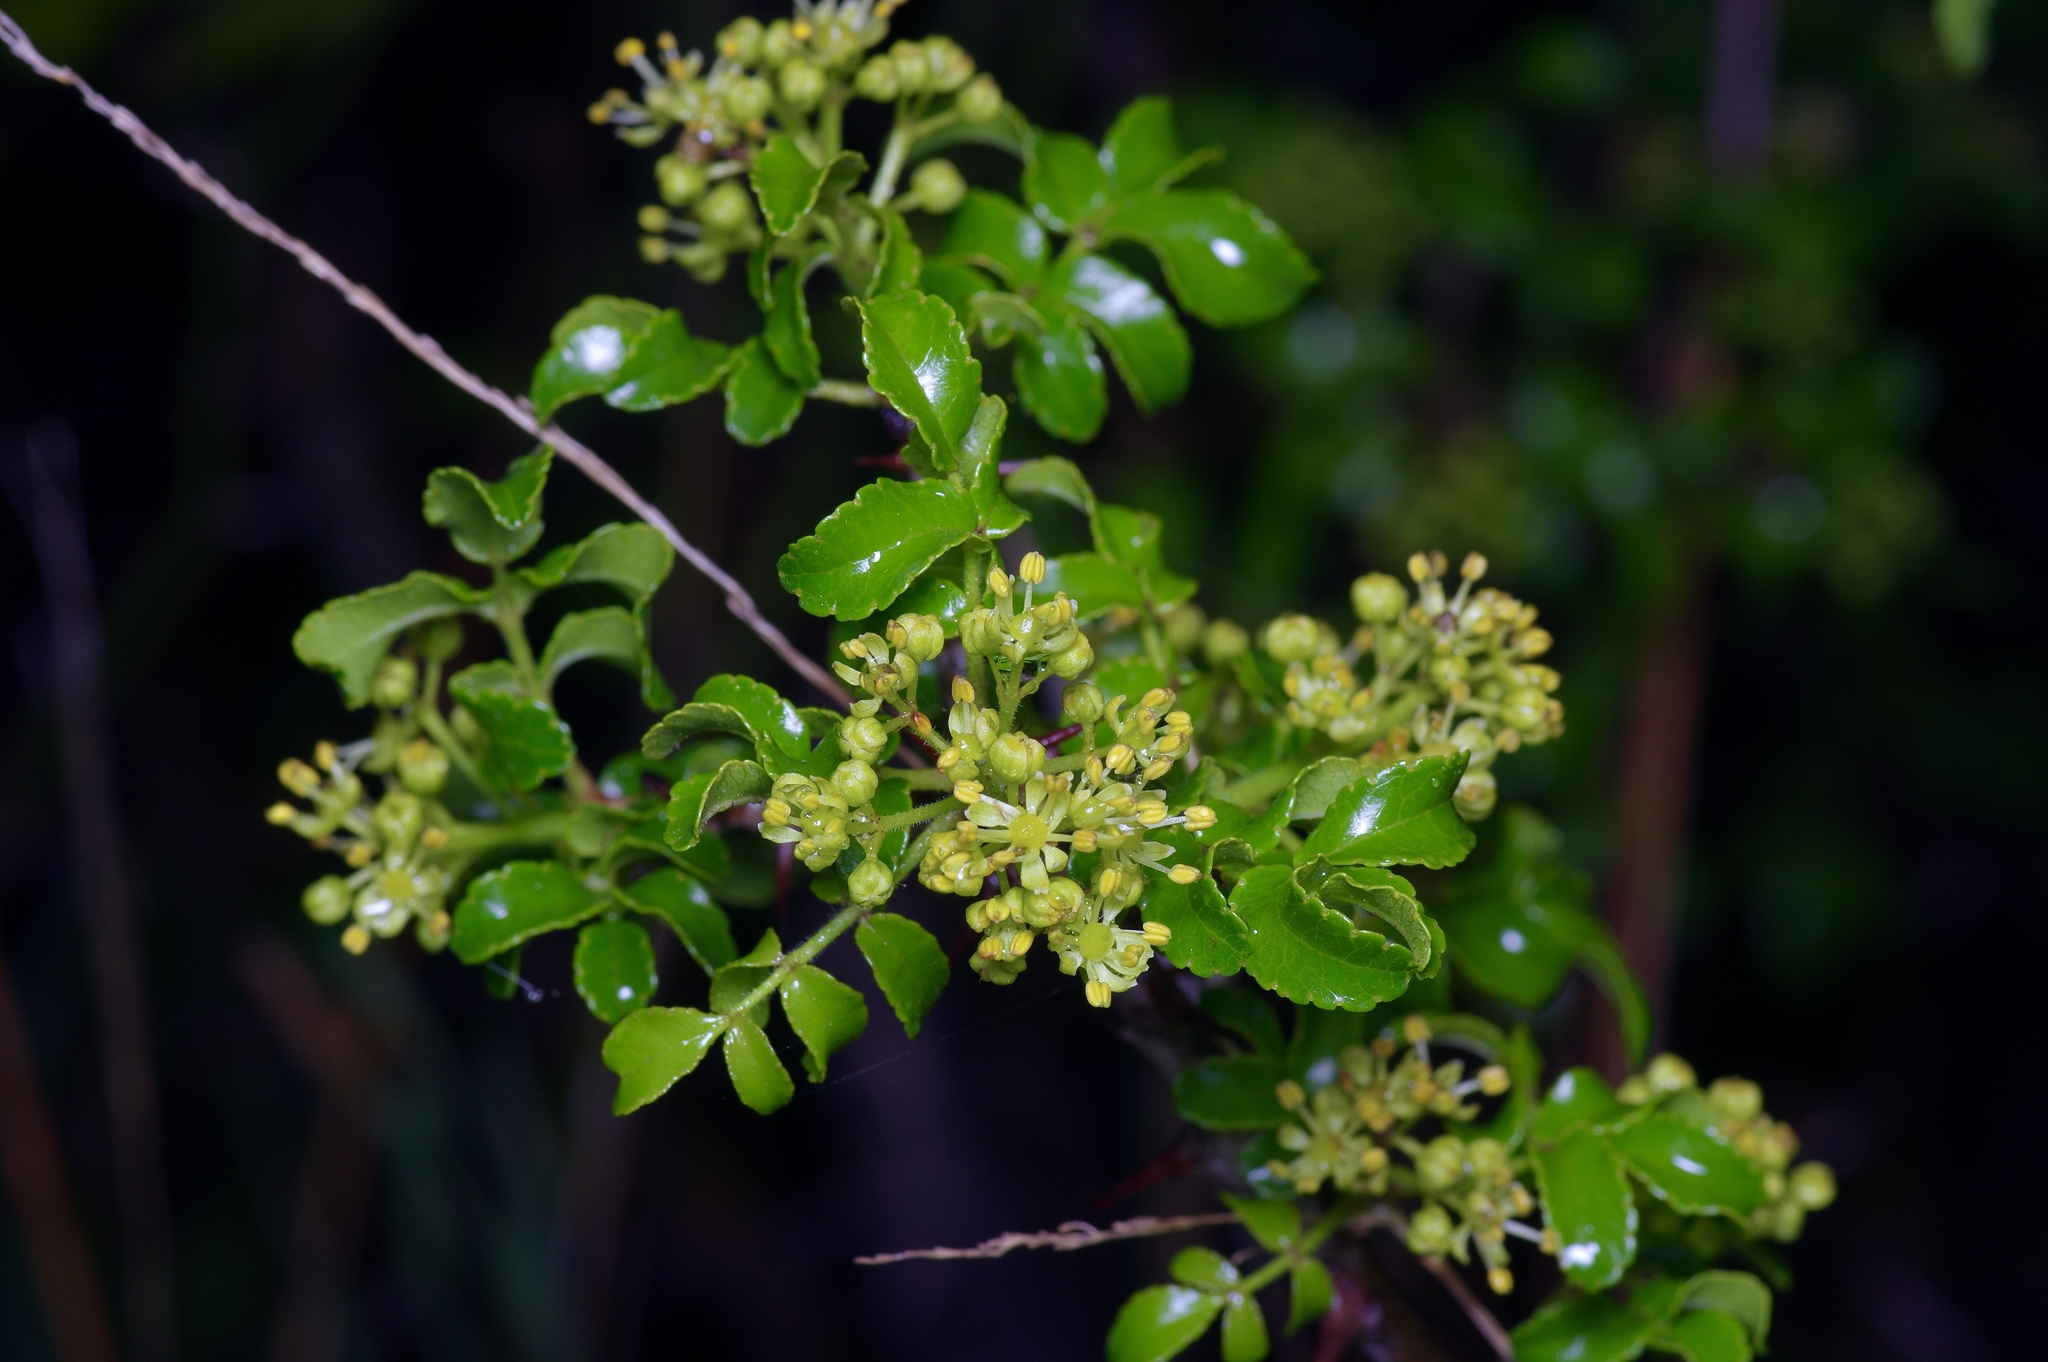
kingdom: Plantae
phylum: Tracheophyta
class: Magnoliopsida
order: Sapindales
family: Rutaceae
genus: Zanthoxylum
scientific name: Zanthoxylum clava-herculis
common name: Hercules'-club
